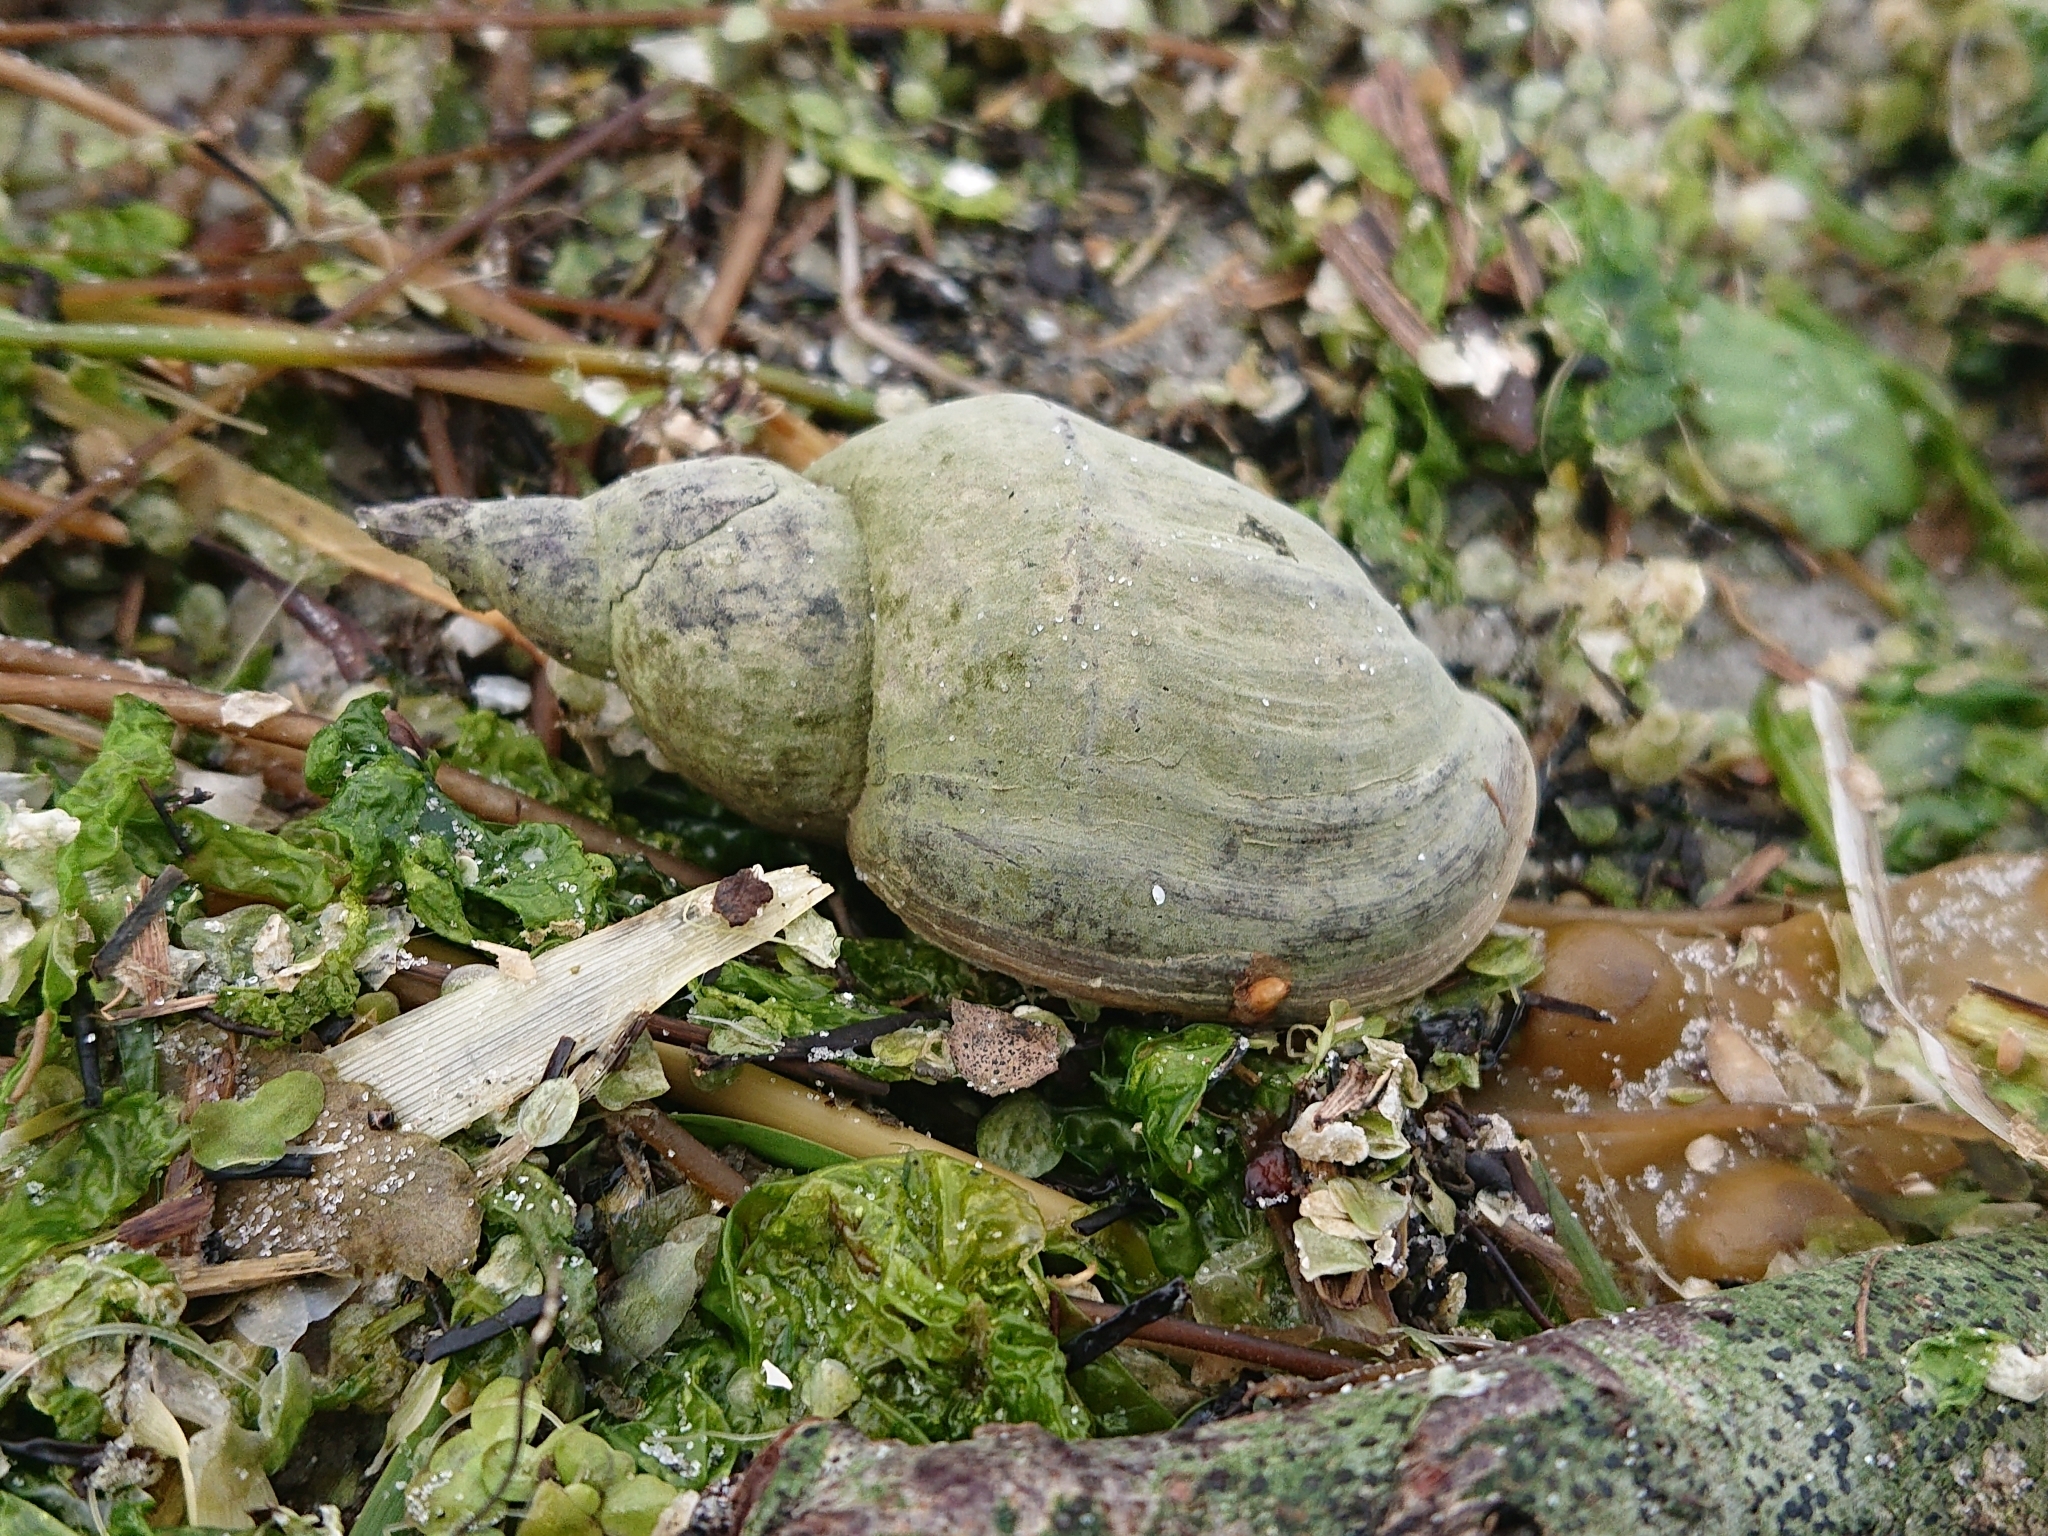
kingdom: Animalia
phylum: Mollusca
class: Gastropoda
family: Lymnaeidae
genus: Lymnaea
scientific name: Lymnaea stagnalis
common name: Great pond snail
